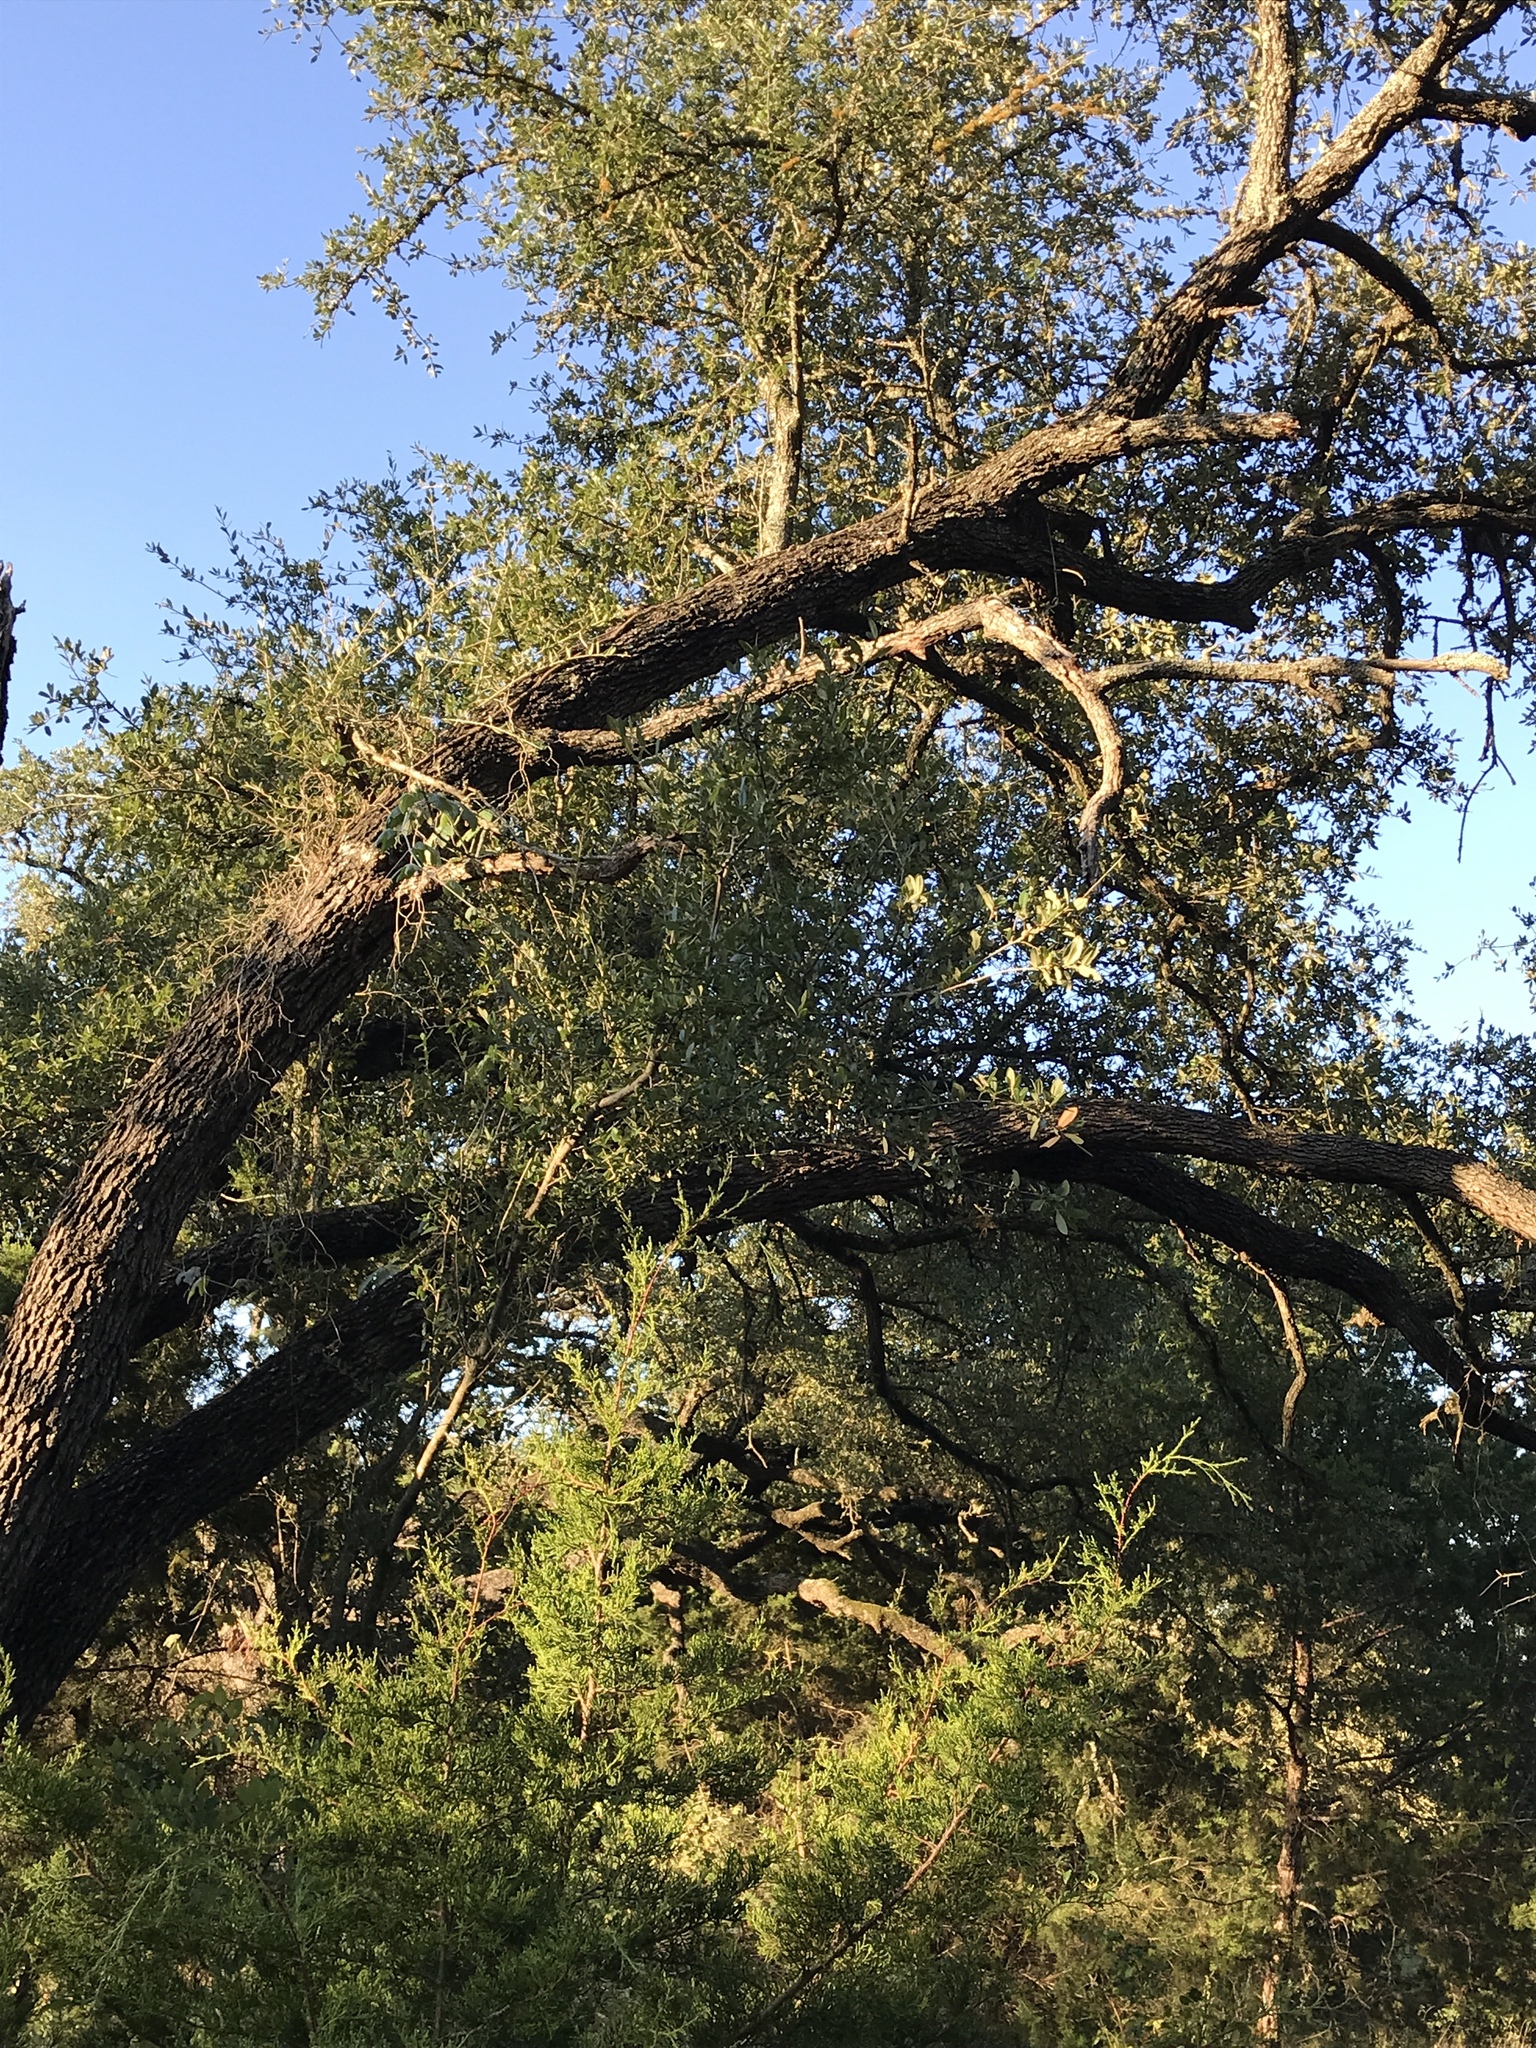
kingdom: Plantae
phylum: Tracheophyta
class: Magnoliopsida
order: Fagales
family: Fagaceae
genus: Quercus
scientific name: Quercus fusiformis
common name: Texas live oak
